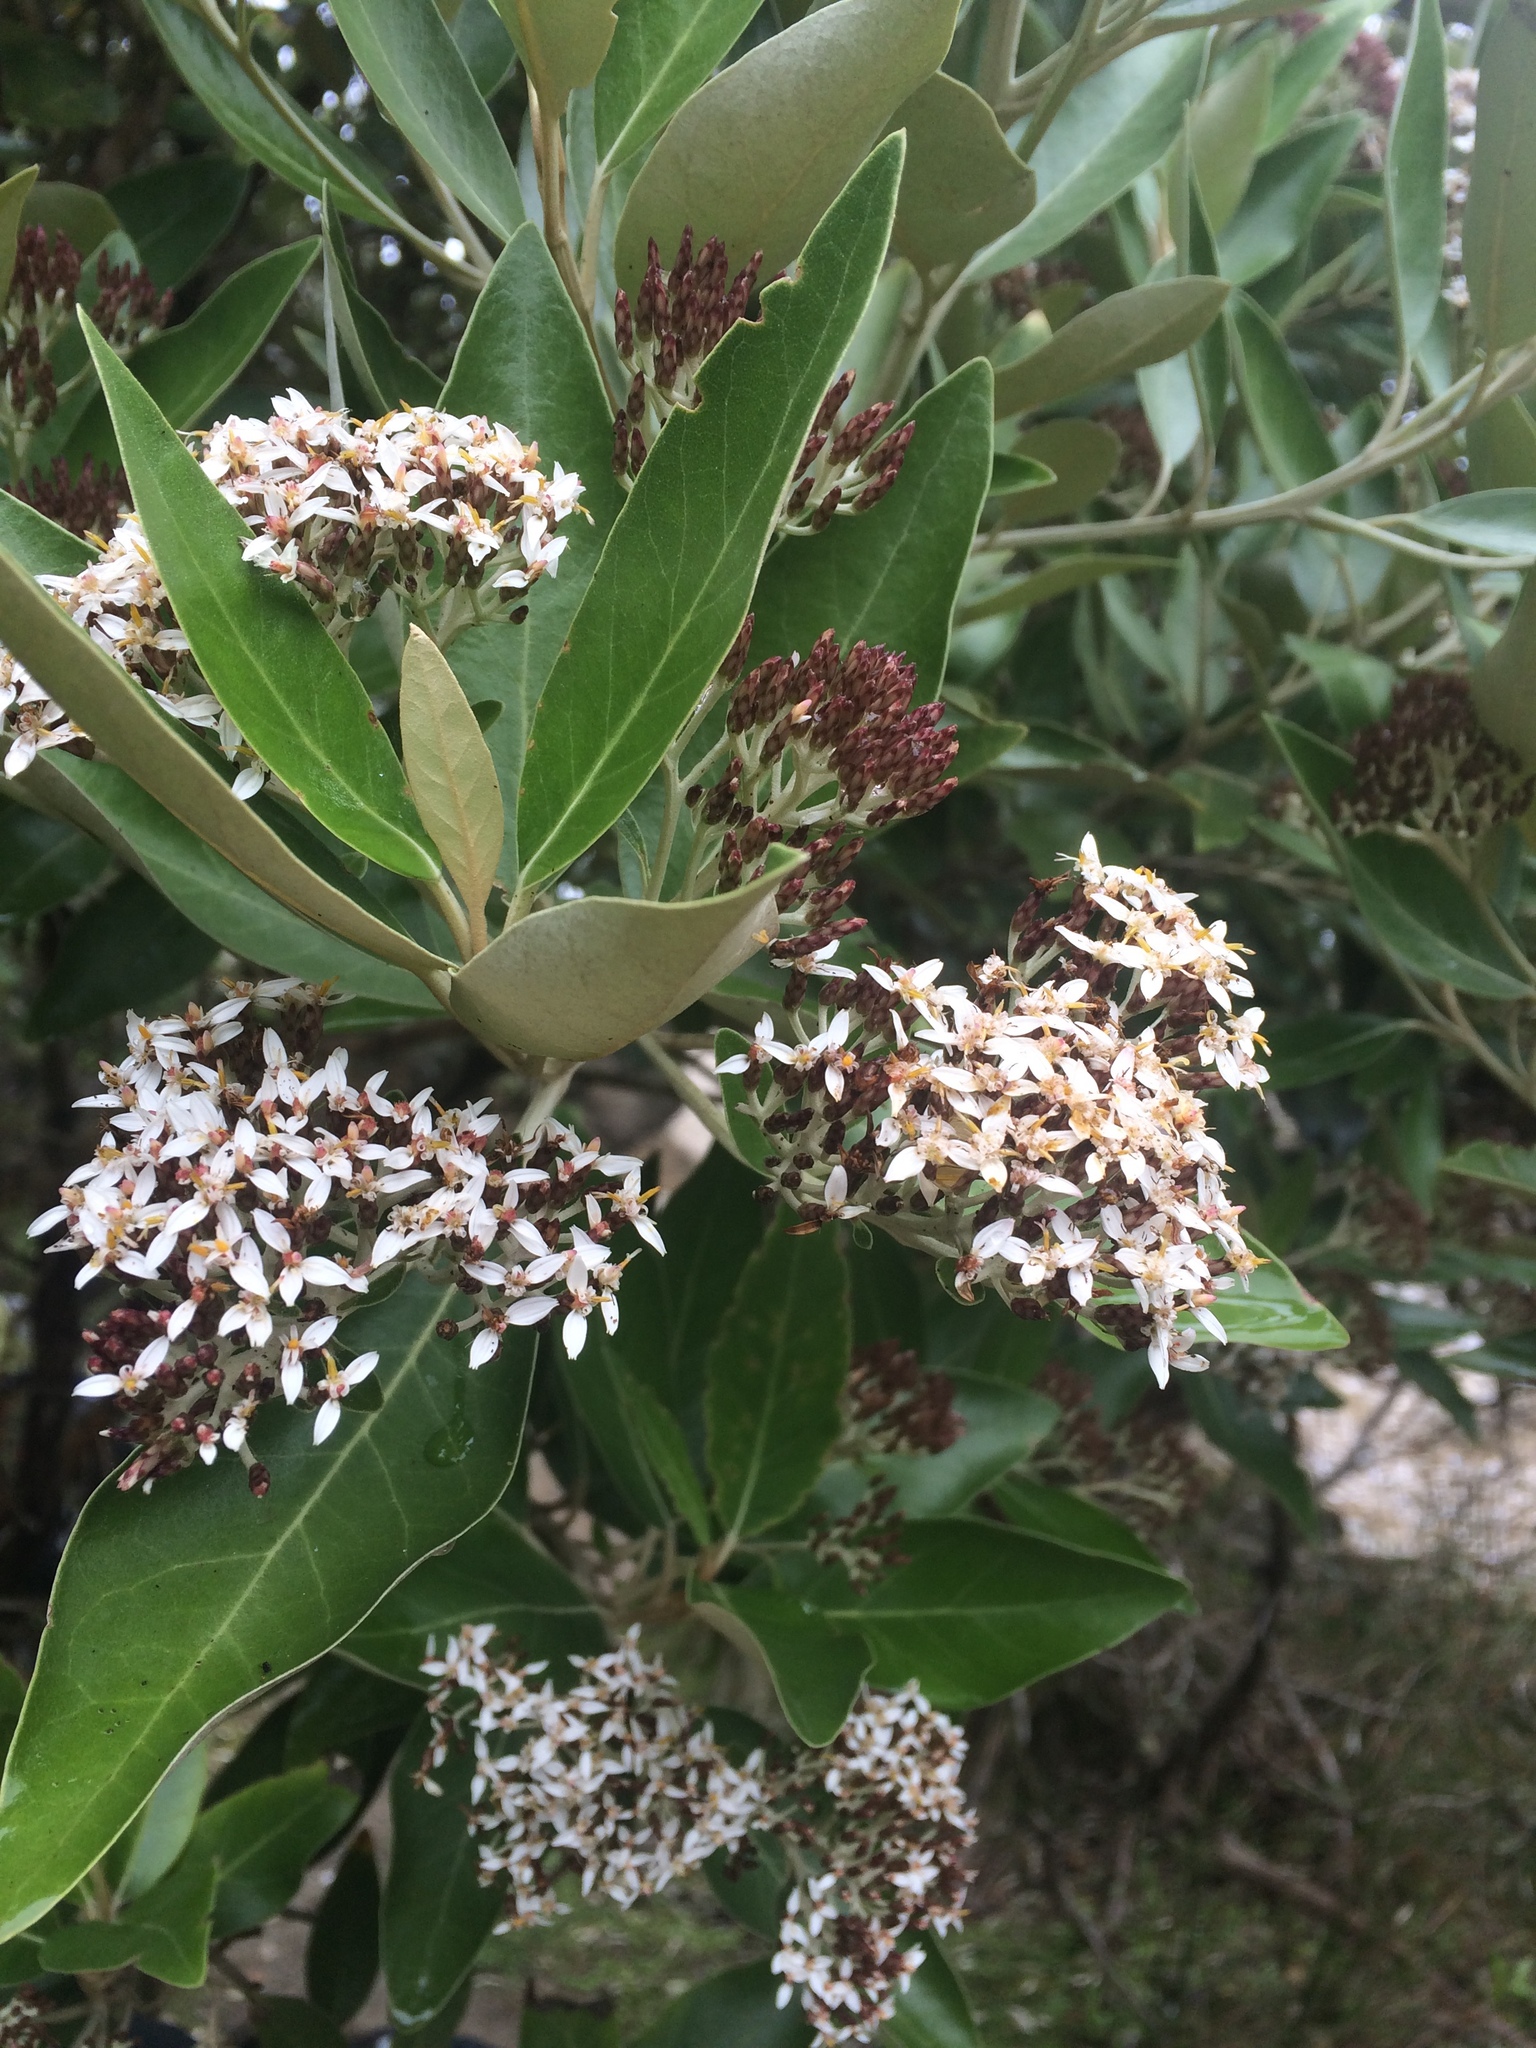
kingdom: Plantae
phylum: Tracheophyta
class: Magnoliopsida
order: Asterales
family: Asteraceae
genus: Olearia
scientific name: Olearia avicenniifolia
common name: Mangrove-leaf daisybush
